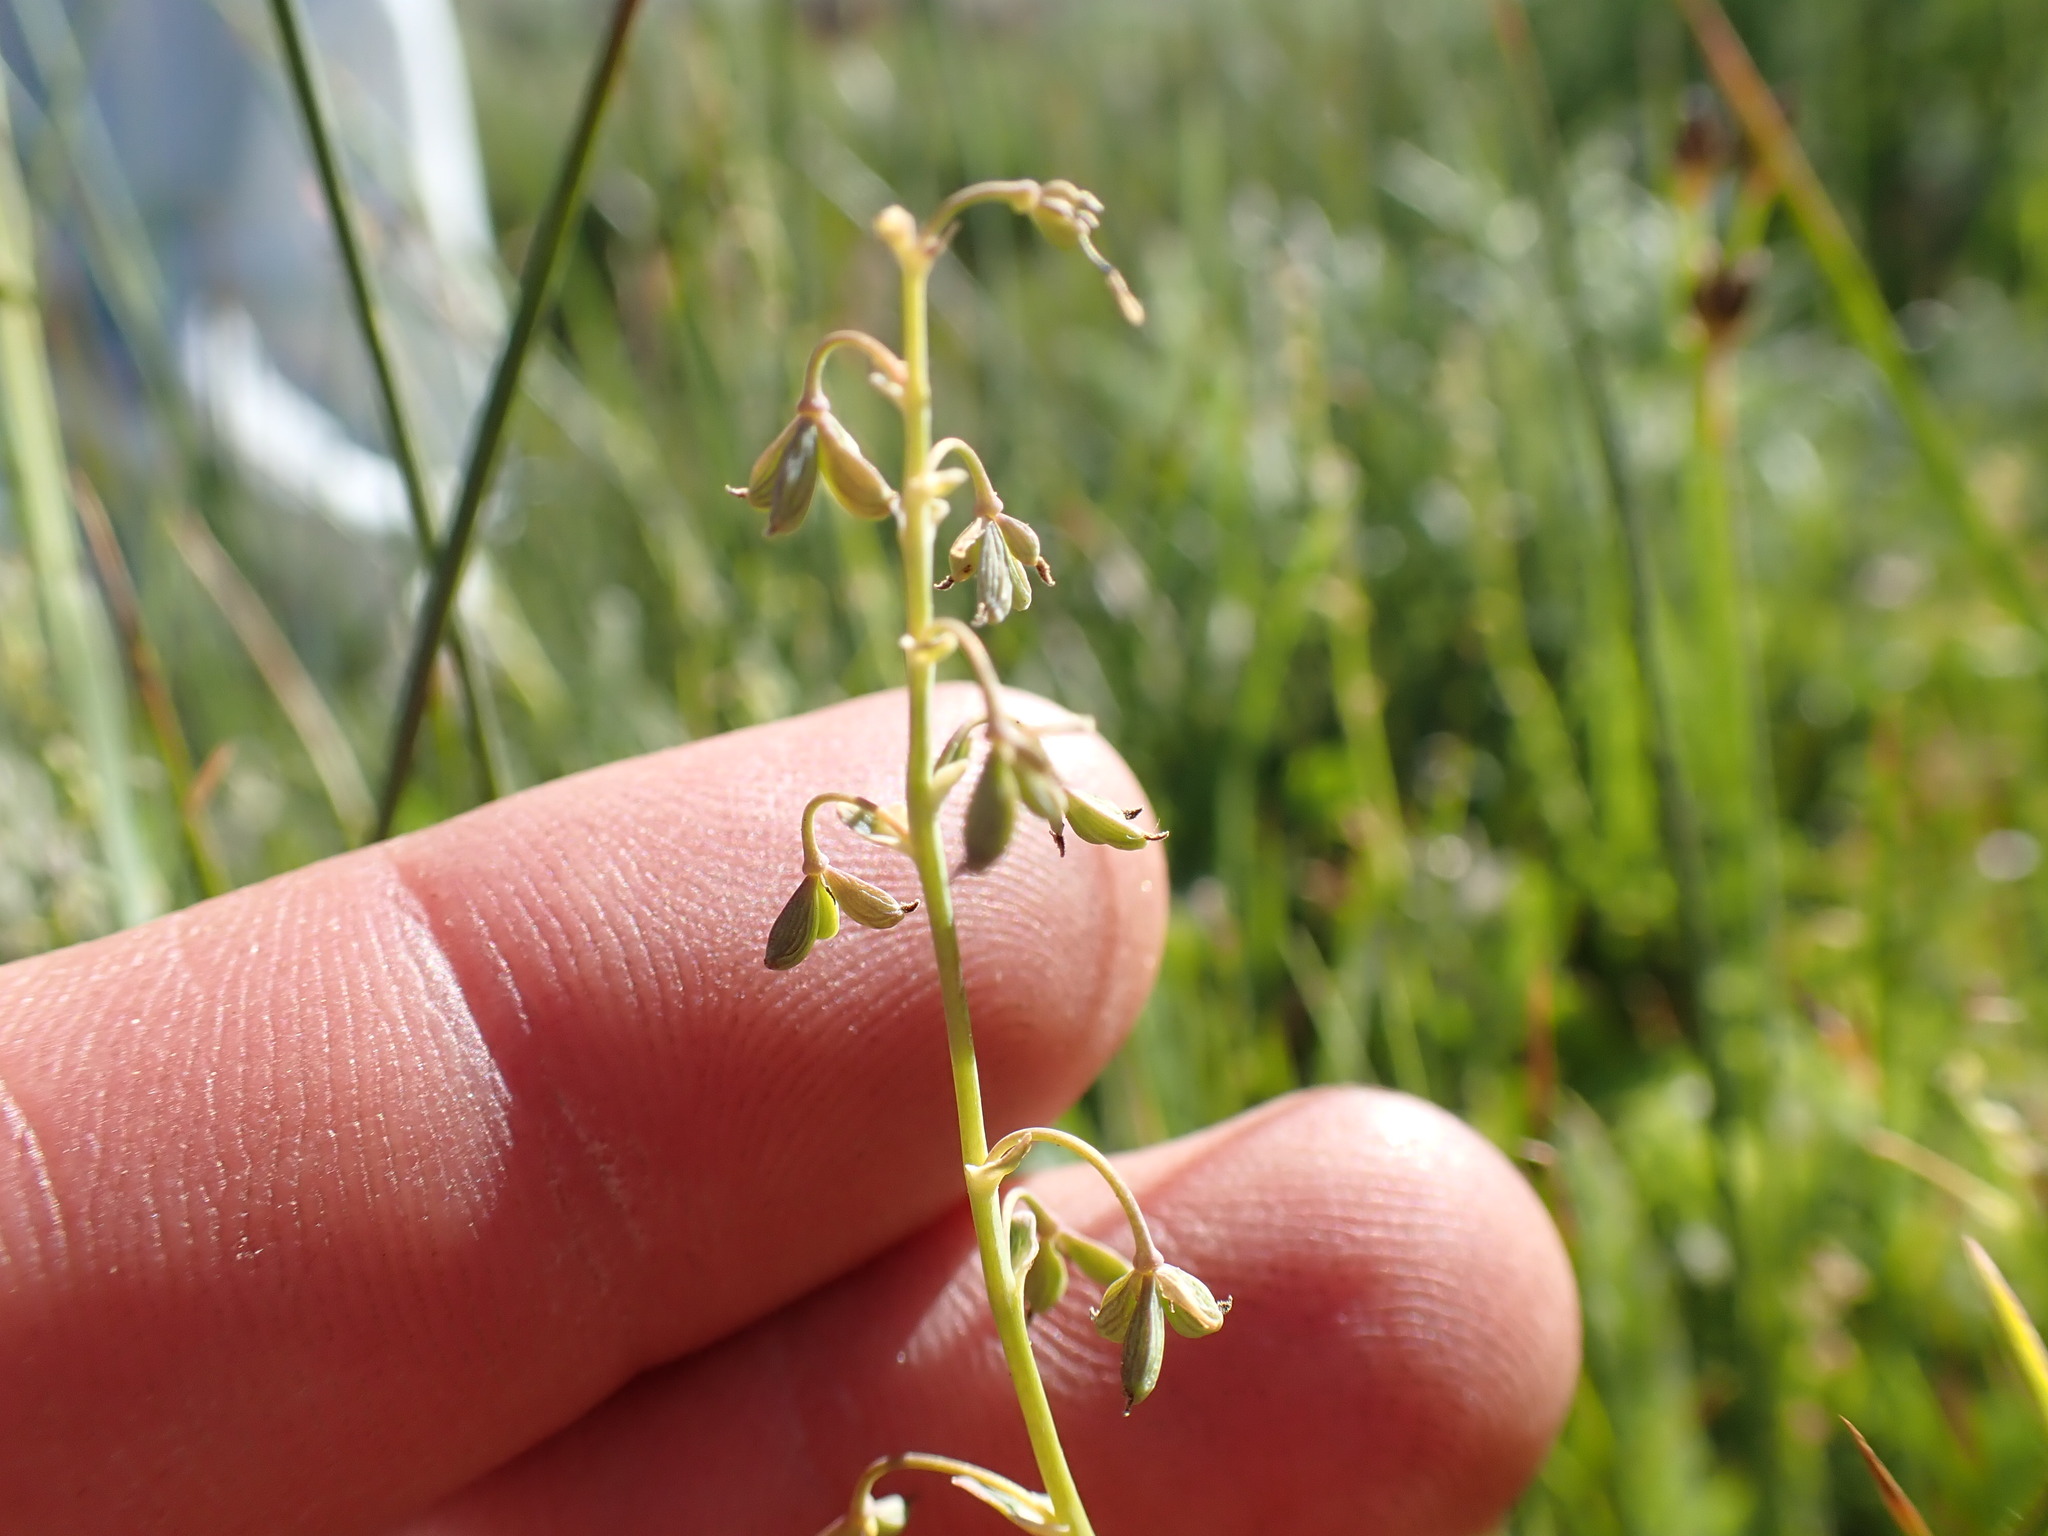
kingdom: Plantae
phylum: Tracheophyta
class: Magnoliopsida
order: Ranunculales
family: Ranunculaceae
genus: Thalictrum
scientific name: Thalictrum alpinum
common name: Alpine meadow-rue
